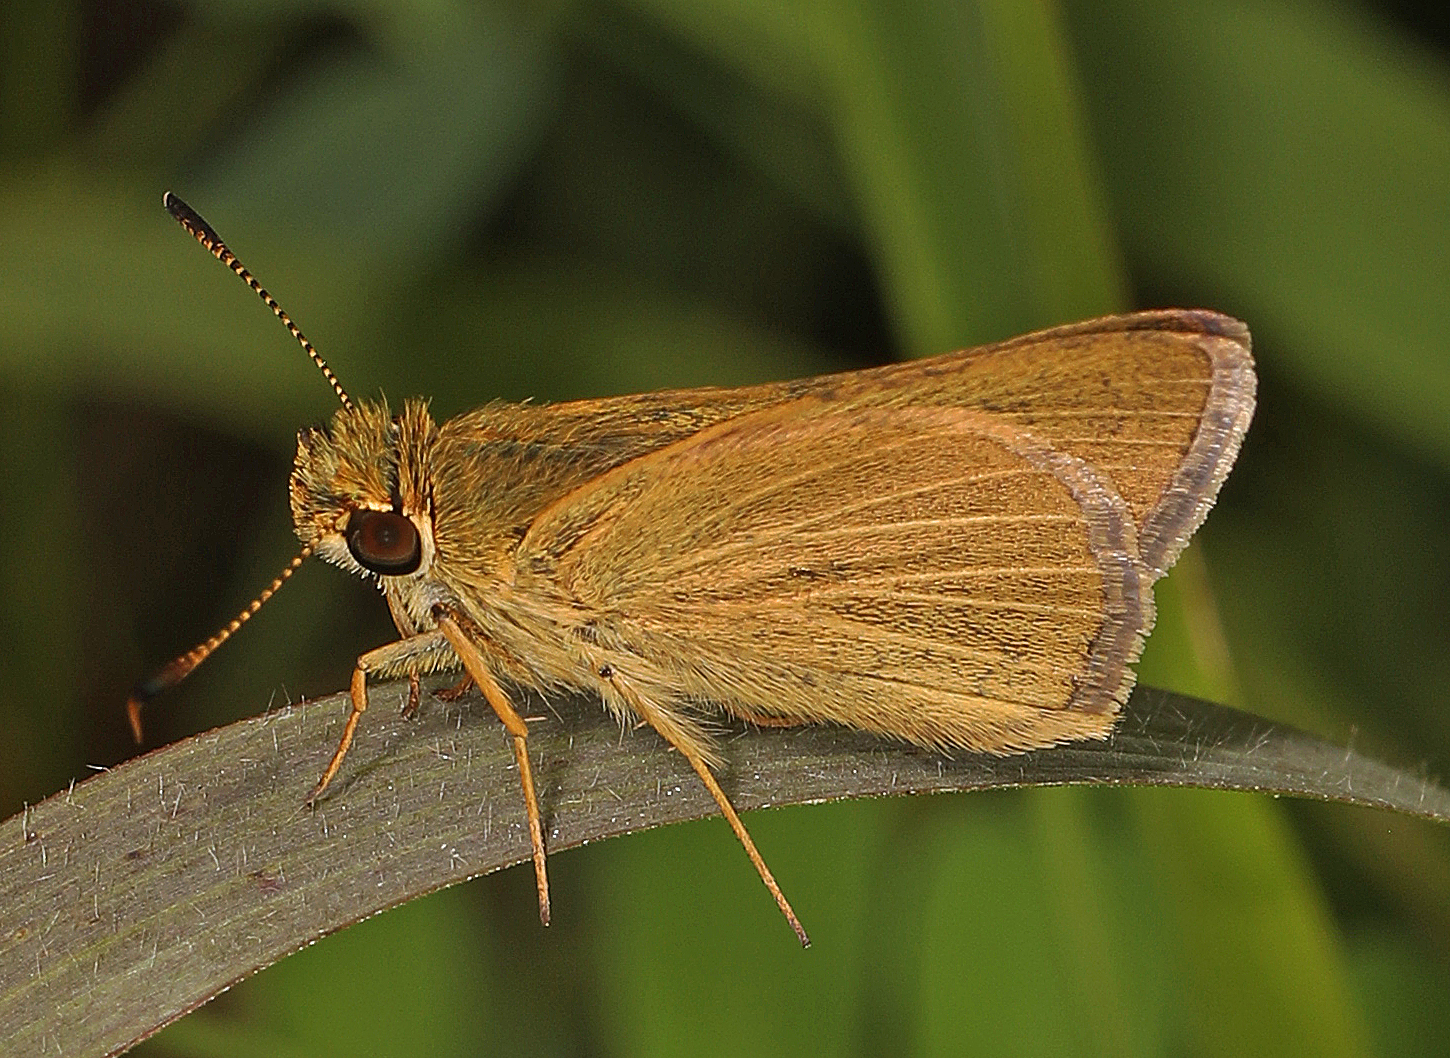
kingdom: Animalia
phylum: Arthropoda
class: Insecta
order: Lepidoptera
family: Hesperiidae
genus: Nastra
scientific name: Nastra lherminier
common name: Swarthy skipper
